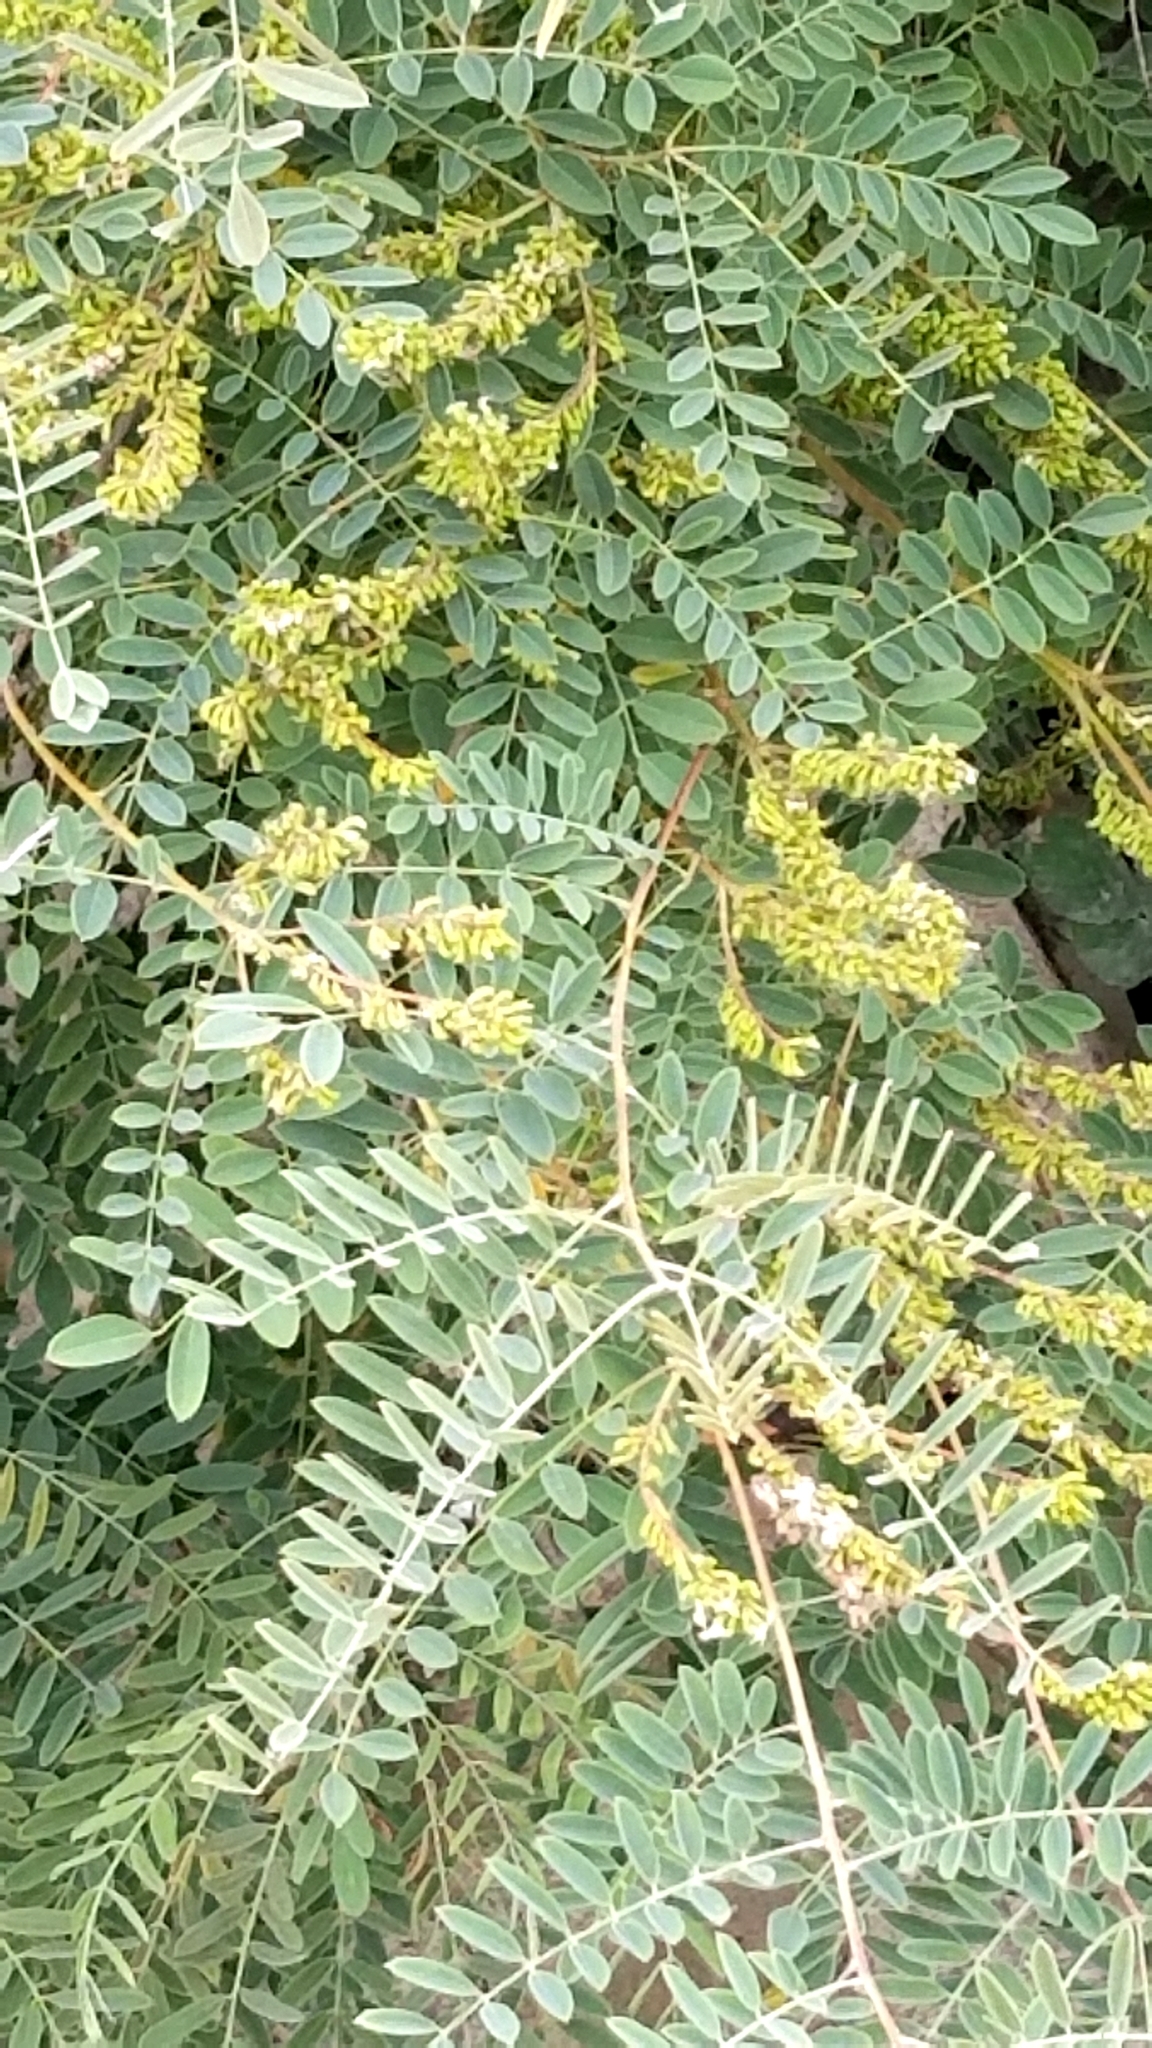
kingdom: Plantae
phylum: Tracheophyta
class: Magnoliopsida
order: Fabales
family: Fabaceae
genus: Amorpha
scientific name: Amorpha fruticosa
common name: False indigo
